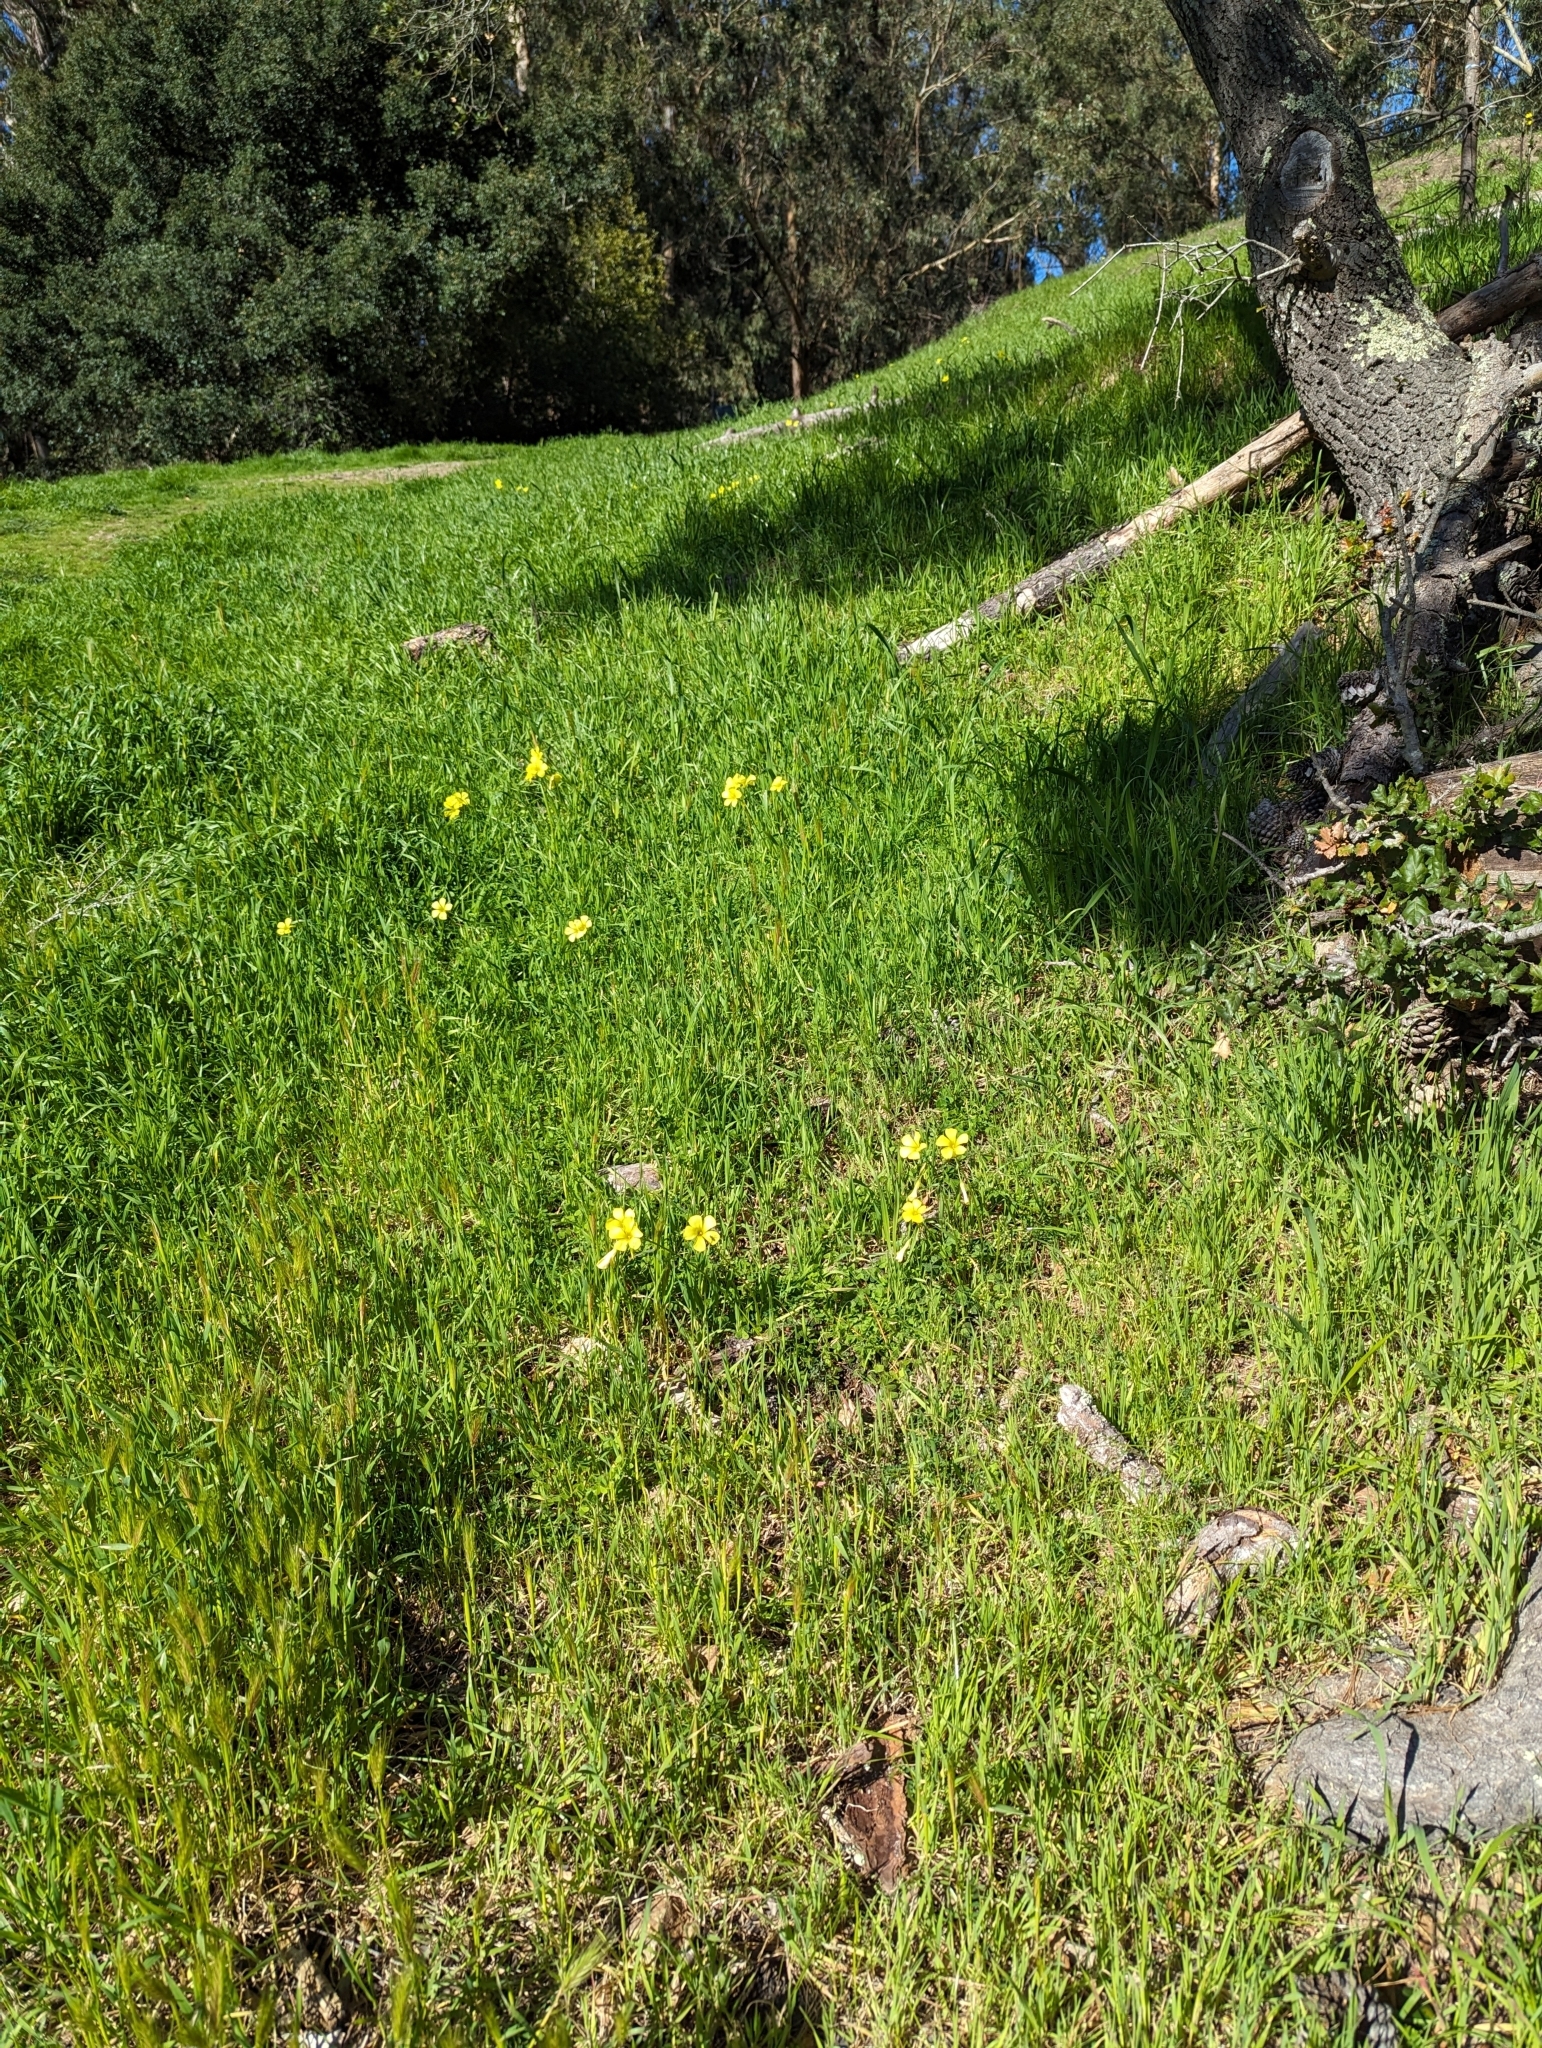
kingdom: Plantae
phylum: Tracheophyta
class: Magnoliopsida
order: Oxalidales
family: Oxalidaceae
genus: Oxalis
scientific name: Oxalis pes-caprae
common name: Bermuda-buttercup
